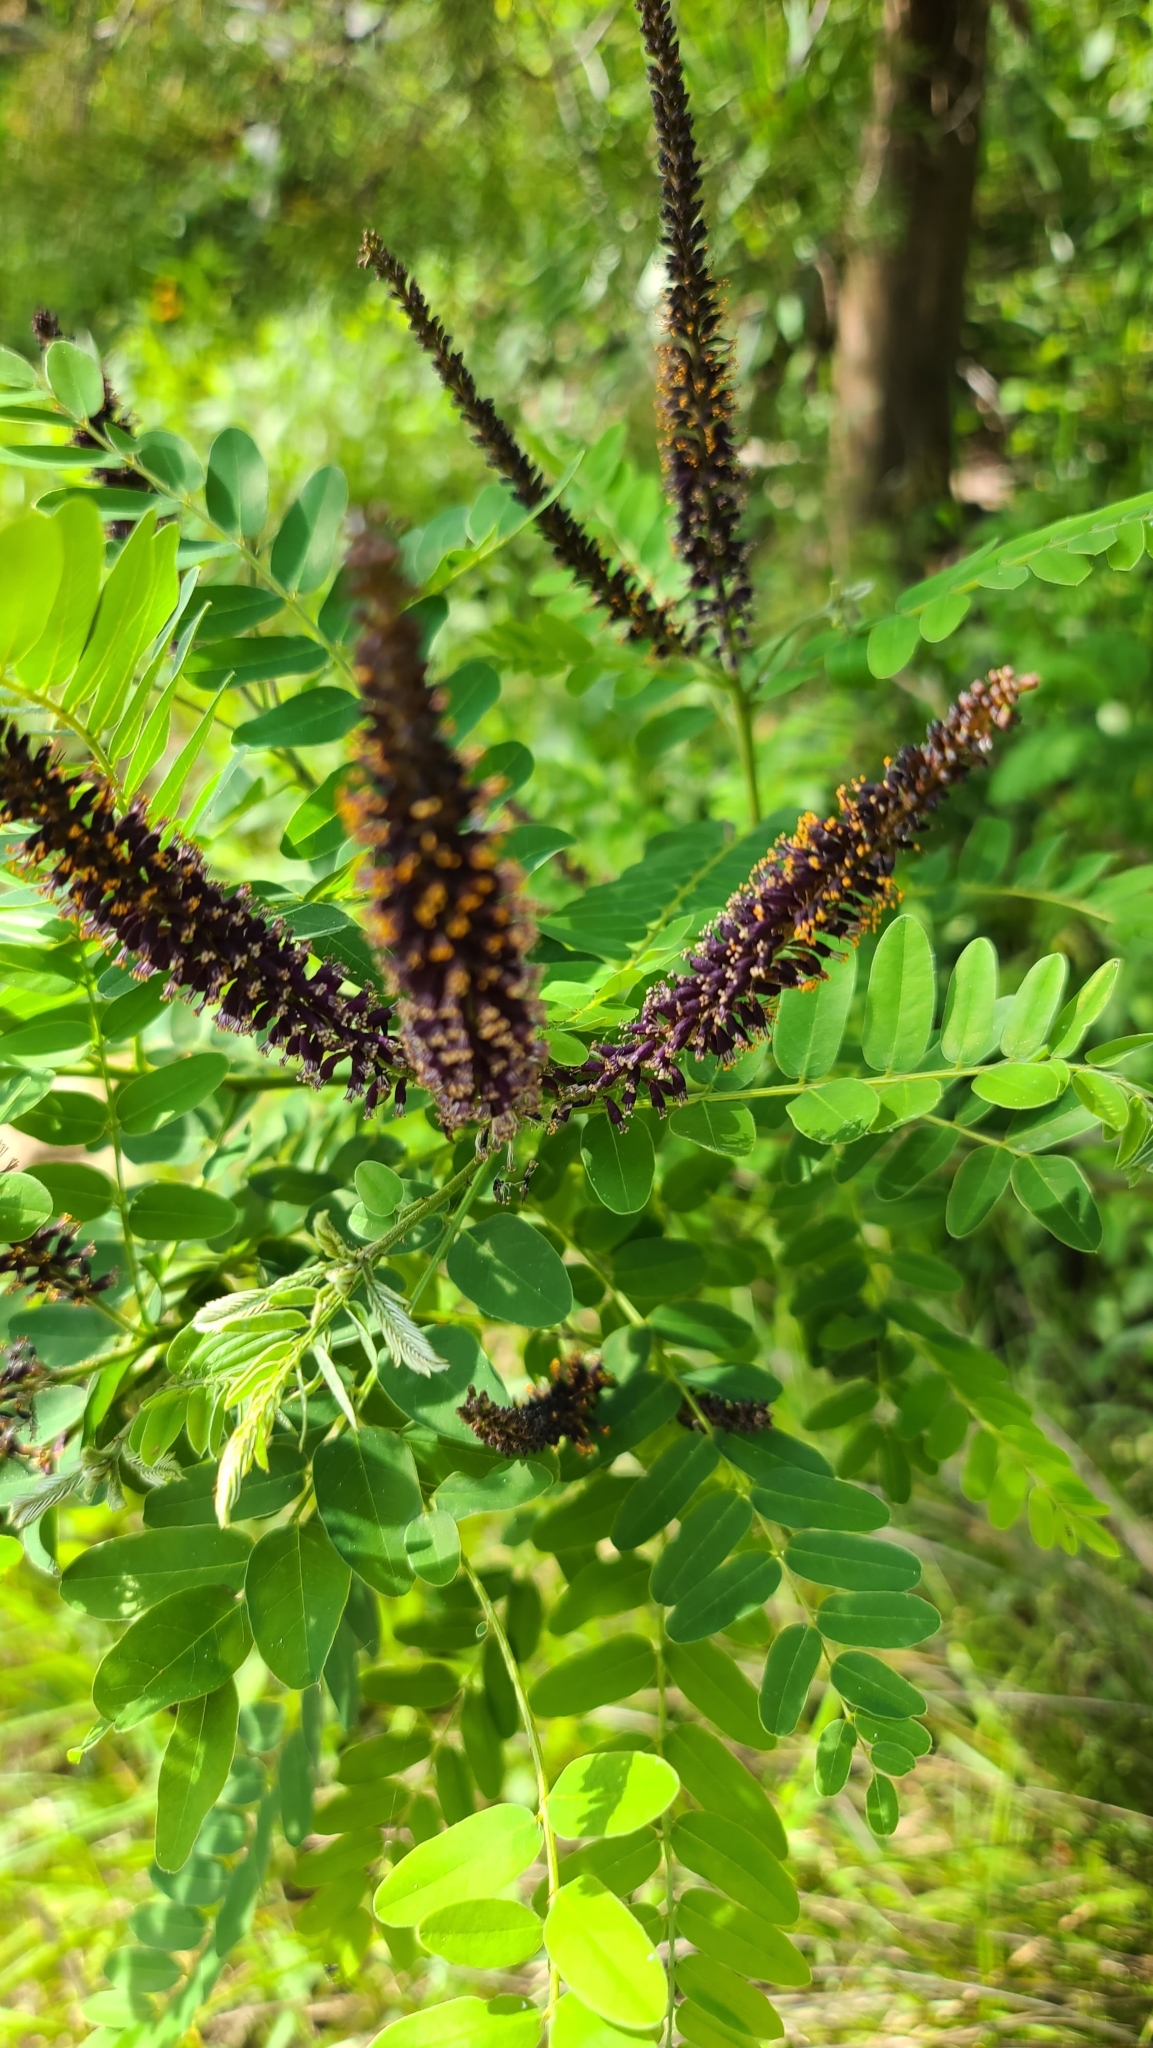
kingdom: Plantae
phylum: Tracheophyta
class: Magnoliopsida
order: Fabales
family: Fabaceae
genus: Amorpha
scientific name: Amorpha fruticosa
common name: False indigo
